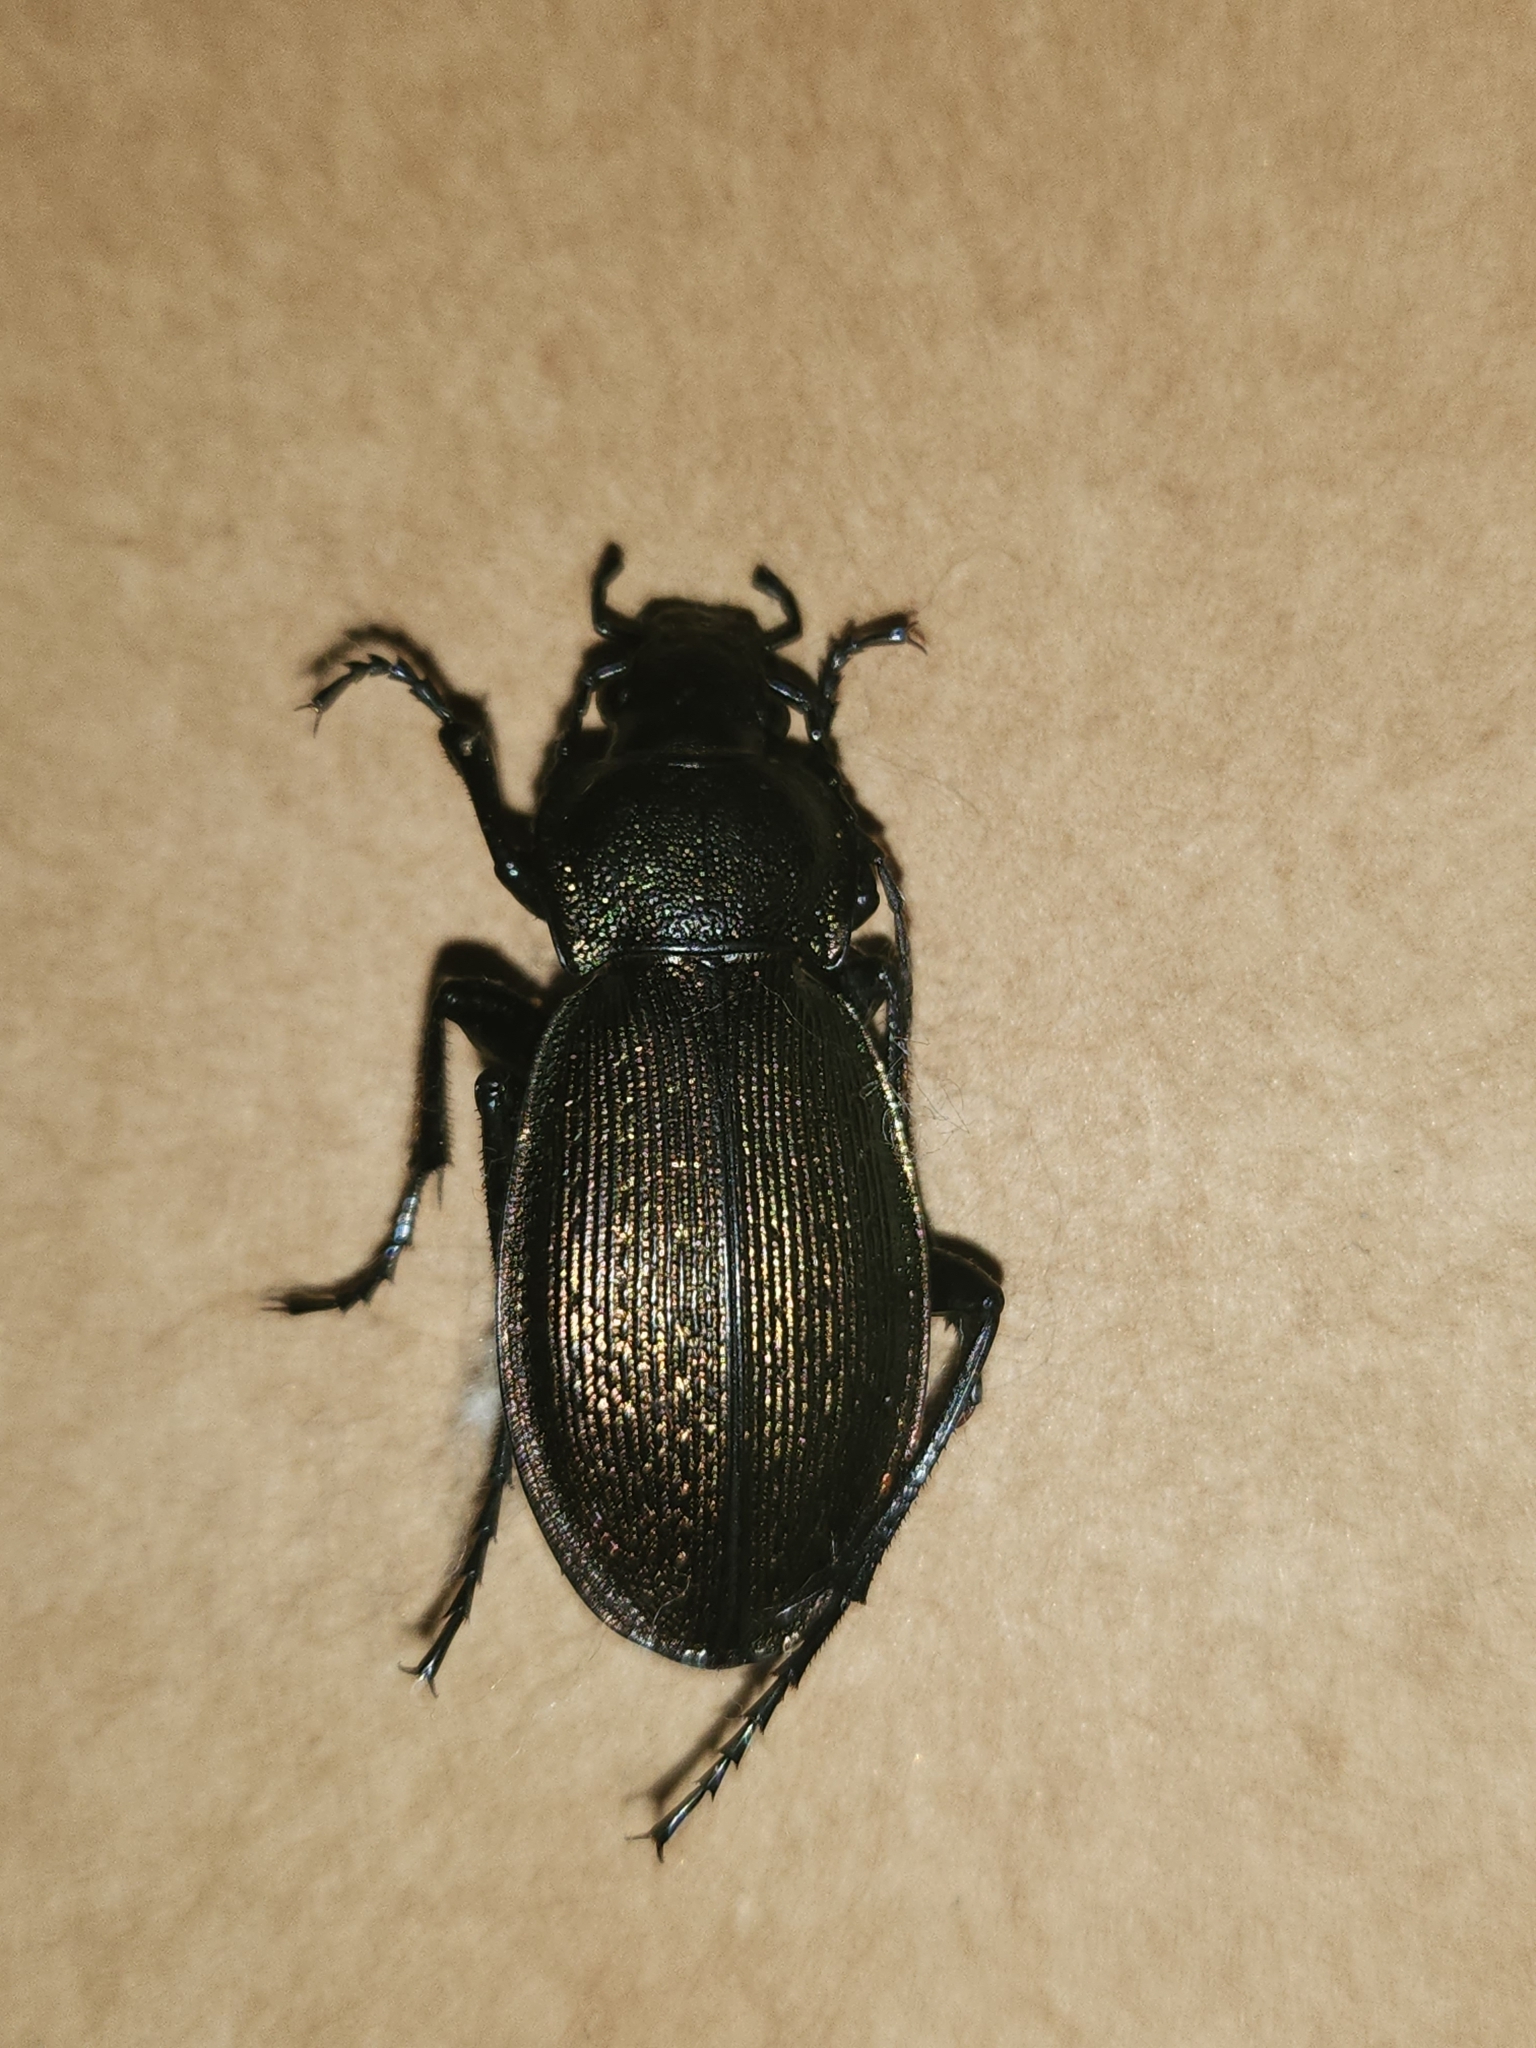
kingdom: Animalia
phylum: Arthropoda
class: Insecta
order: Coleoptera
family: Carabidae
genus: Carabus
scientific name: Carabus regalis
